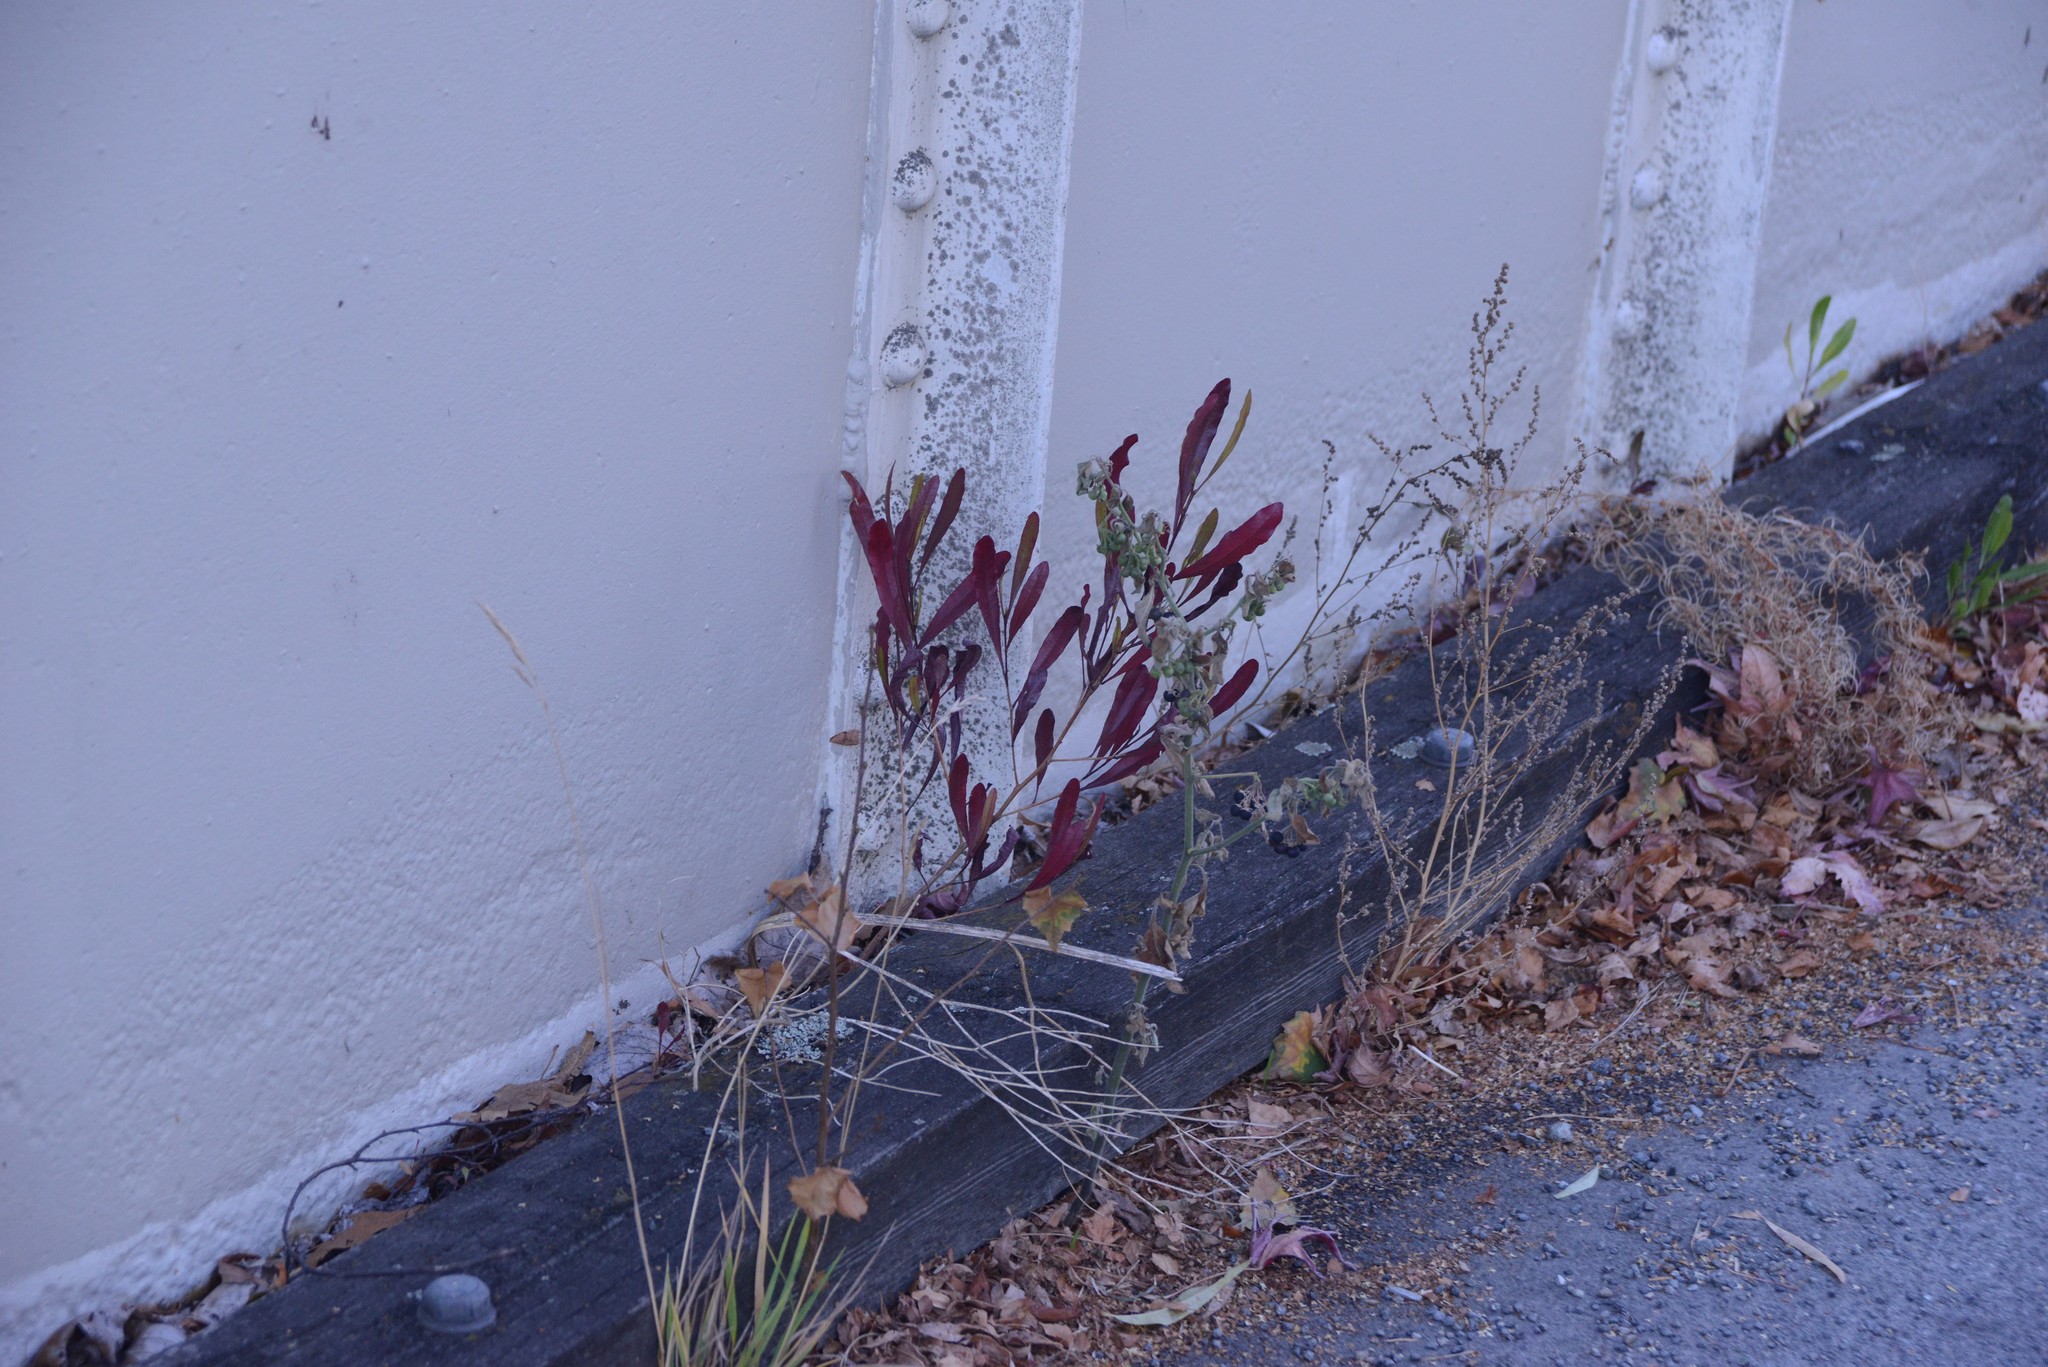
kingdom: Plantae
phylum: Tracheophyta
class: Magnoliopsida
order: Sapindales
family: Sapindaceae
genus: Dodonaea
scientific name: Dodonaea viscosa
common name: Hopbush
